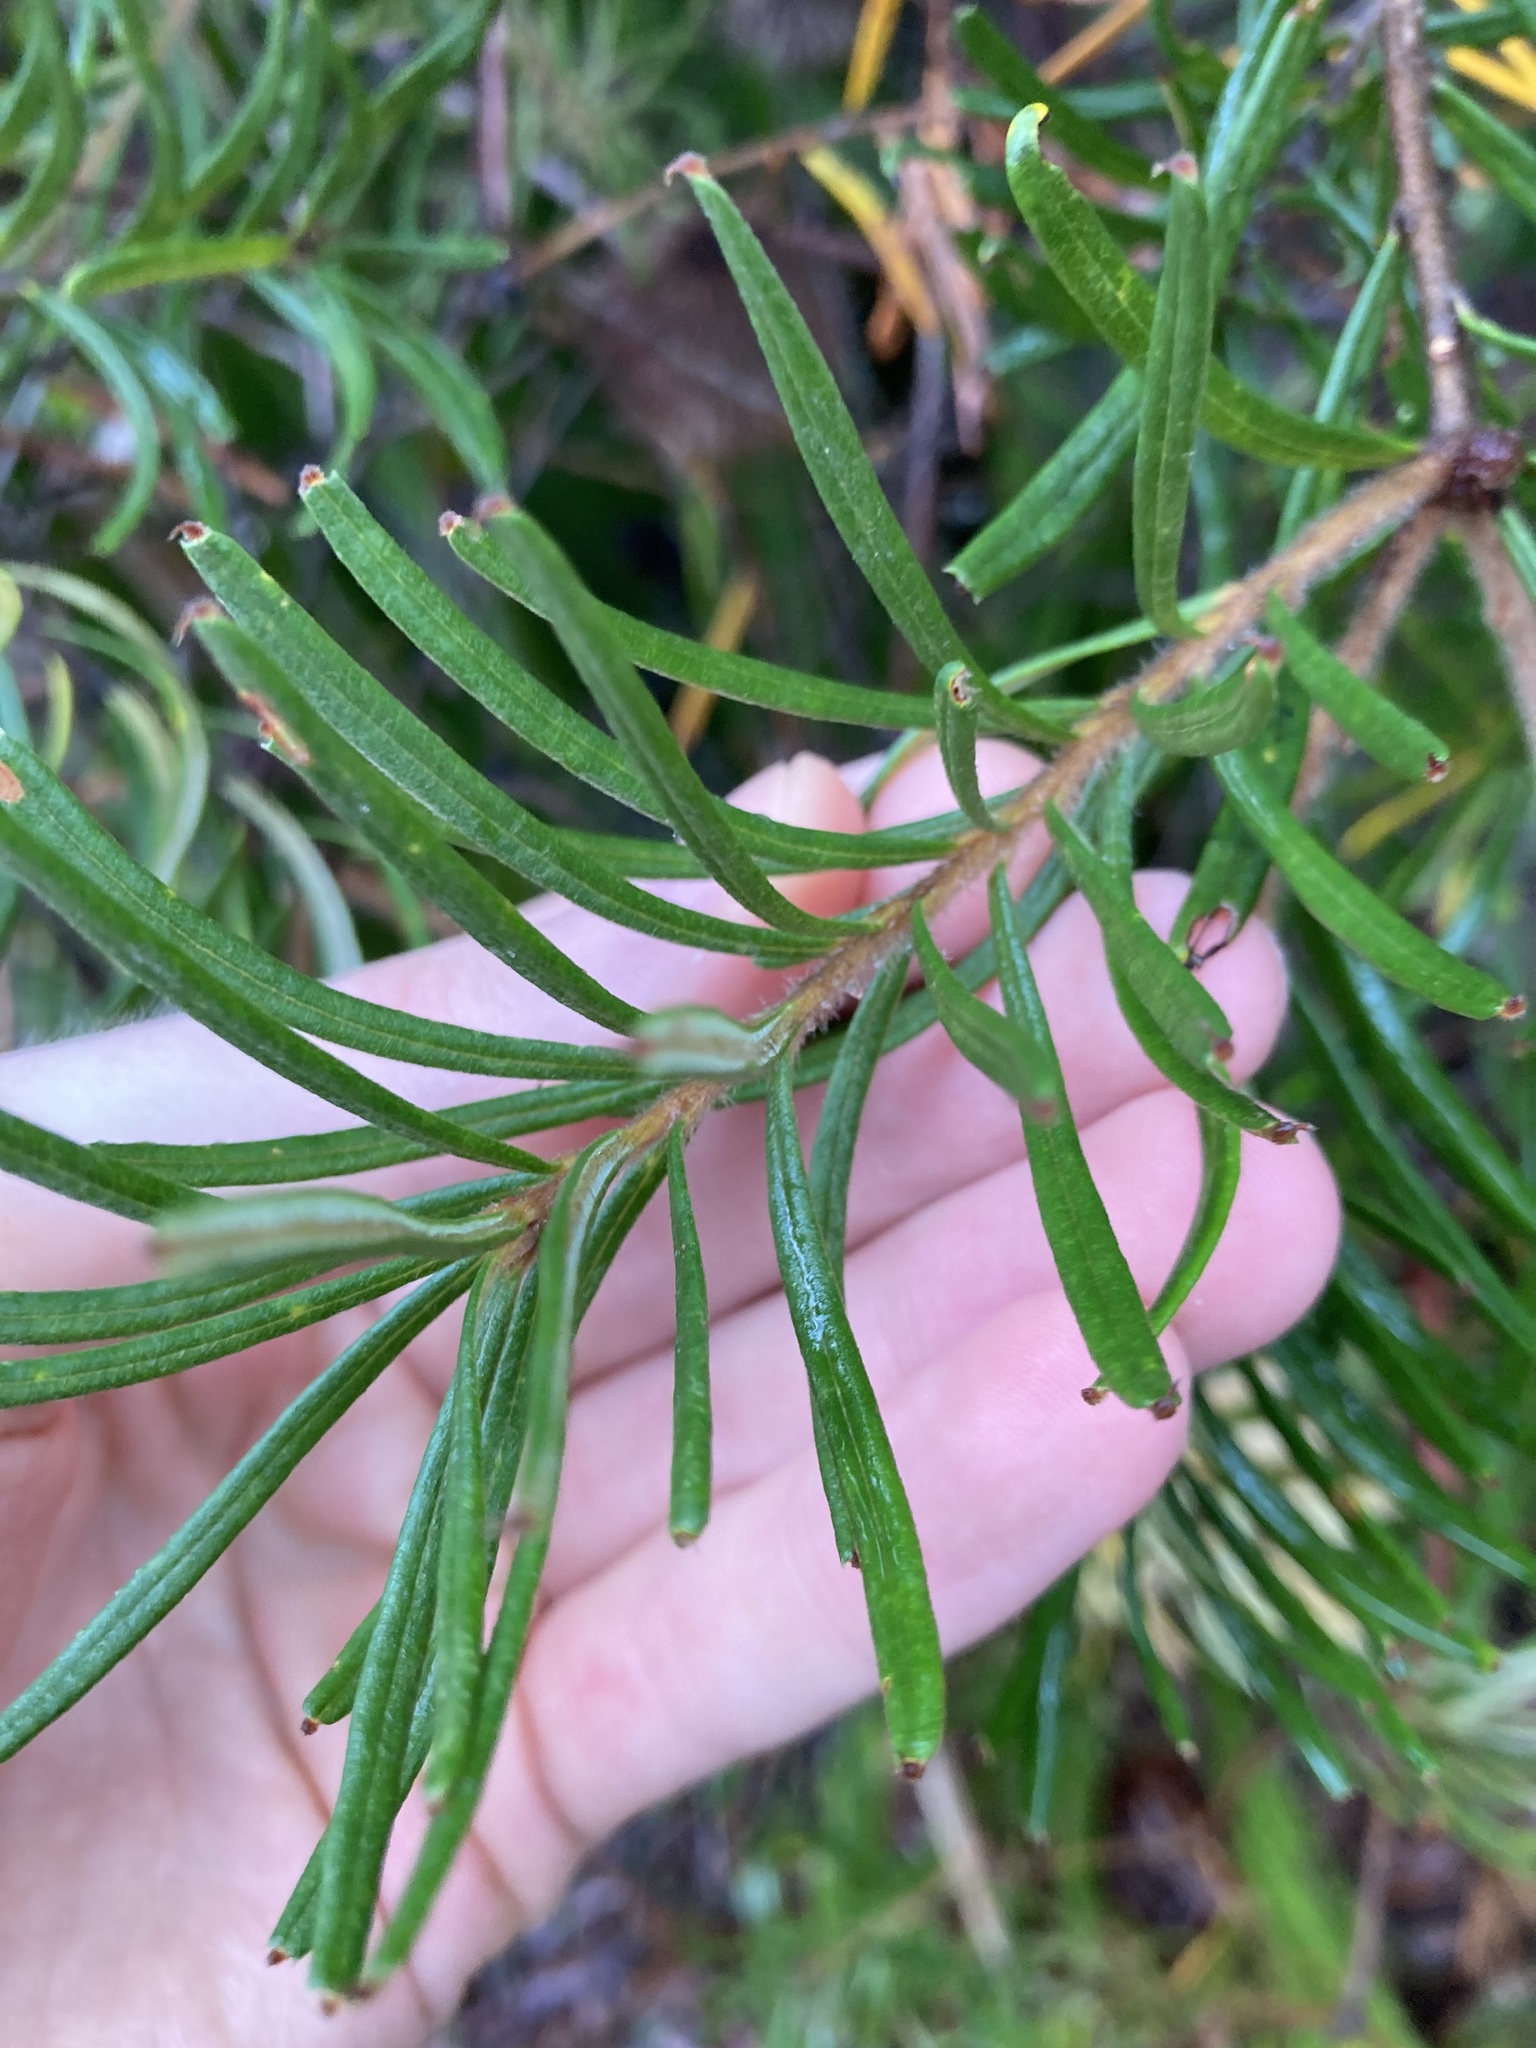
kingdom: Plantae
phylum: Tracheophyta
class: Magnoliopsida
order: Proteales
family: Proteaceae
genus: Banksia
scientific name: Banksia marginata
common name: Silver banksia
